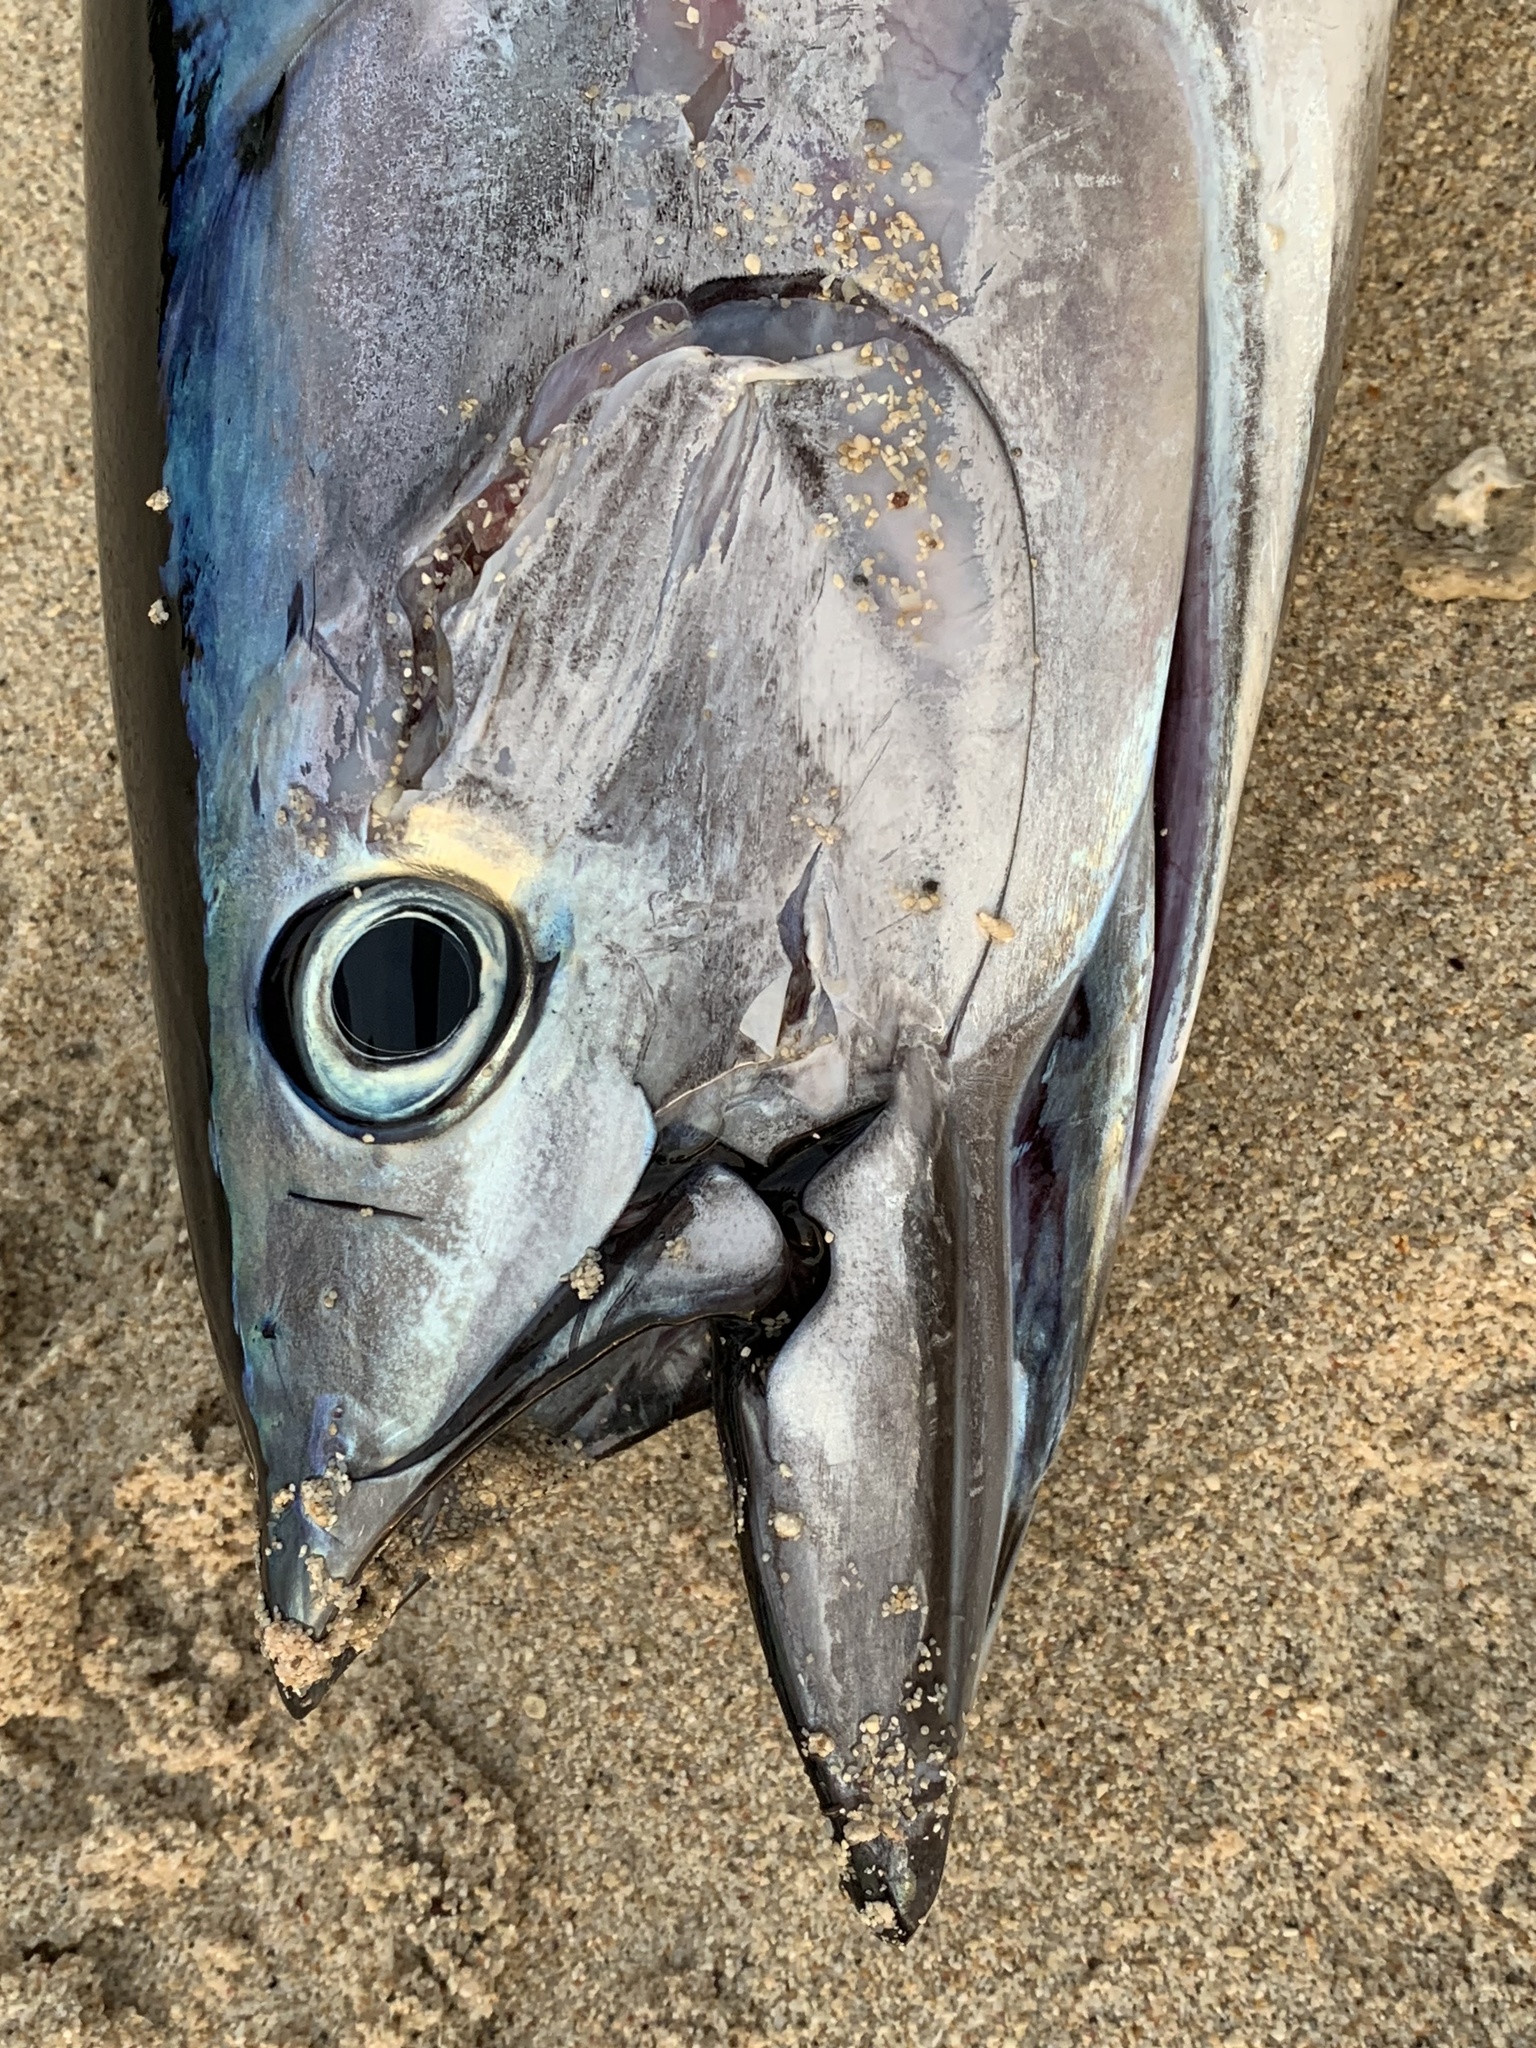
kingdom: Animalia
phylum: Chordata
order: Perciformes
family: Scombridae
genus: Katsuwonus
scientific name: Katsuwonus pelamis
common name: Skipjack tuna
